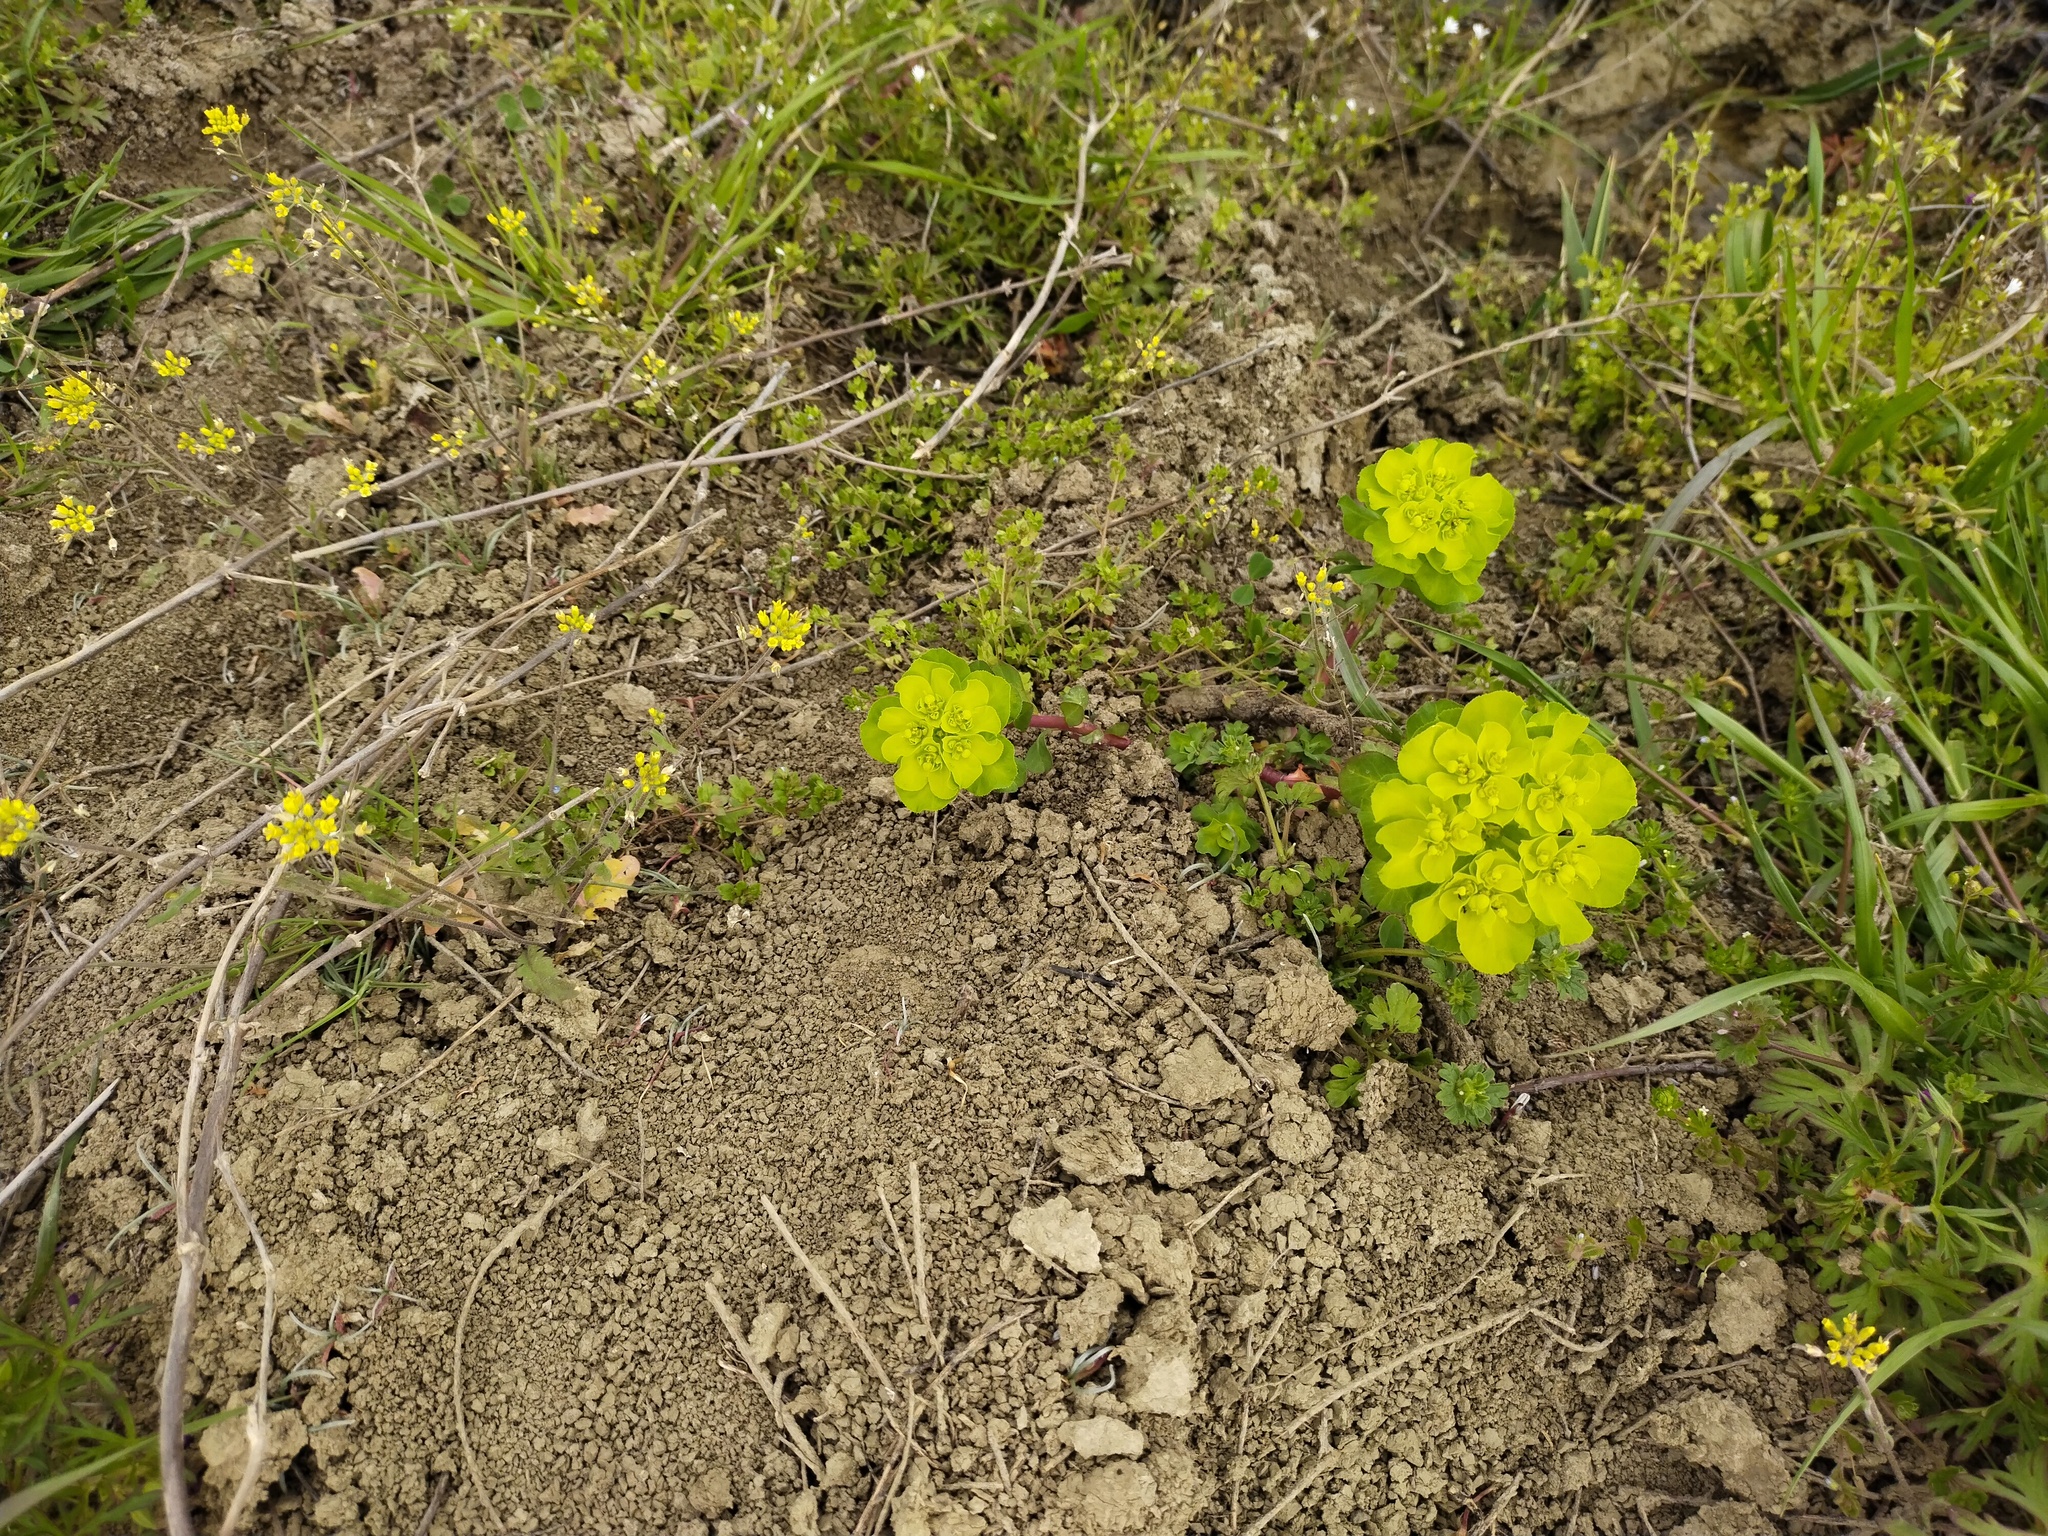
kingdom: Plantae
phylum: Tracheophyta
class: Magnoliopsida
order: Malpighiales
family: Euphorbiaceae
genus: Euphorbia
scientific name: Euphorbia helioscopia
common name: Sun spurge
